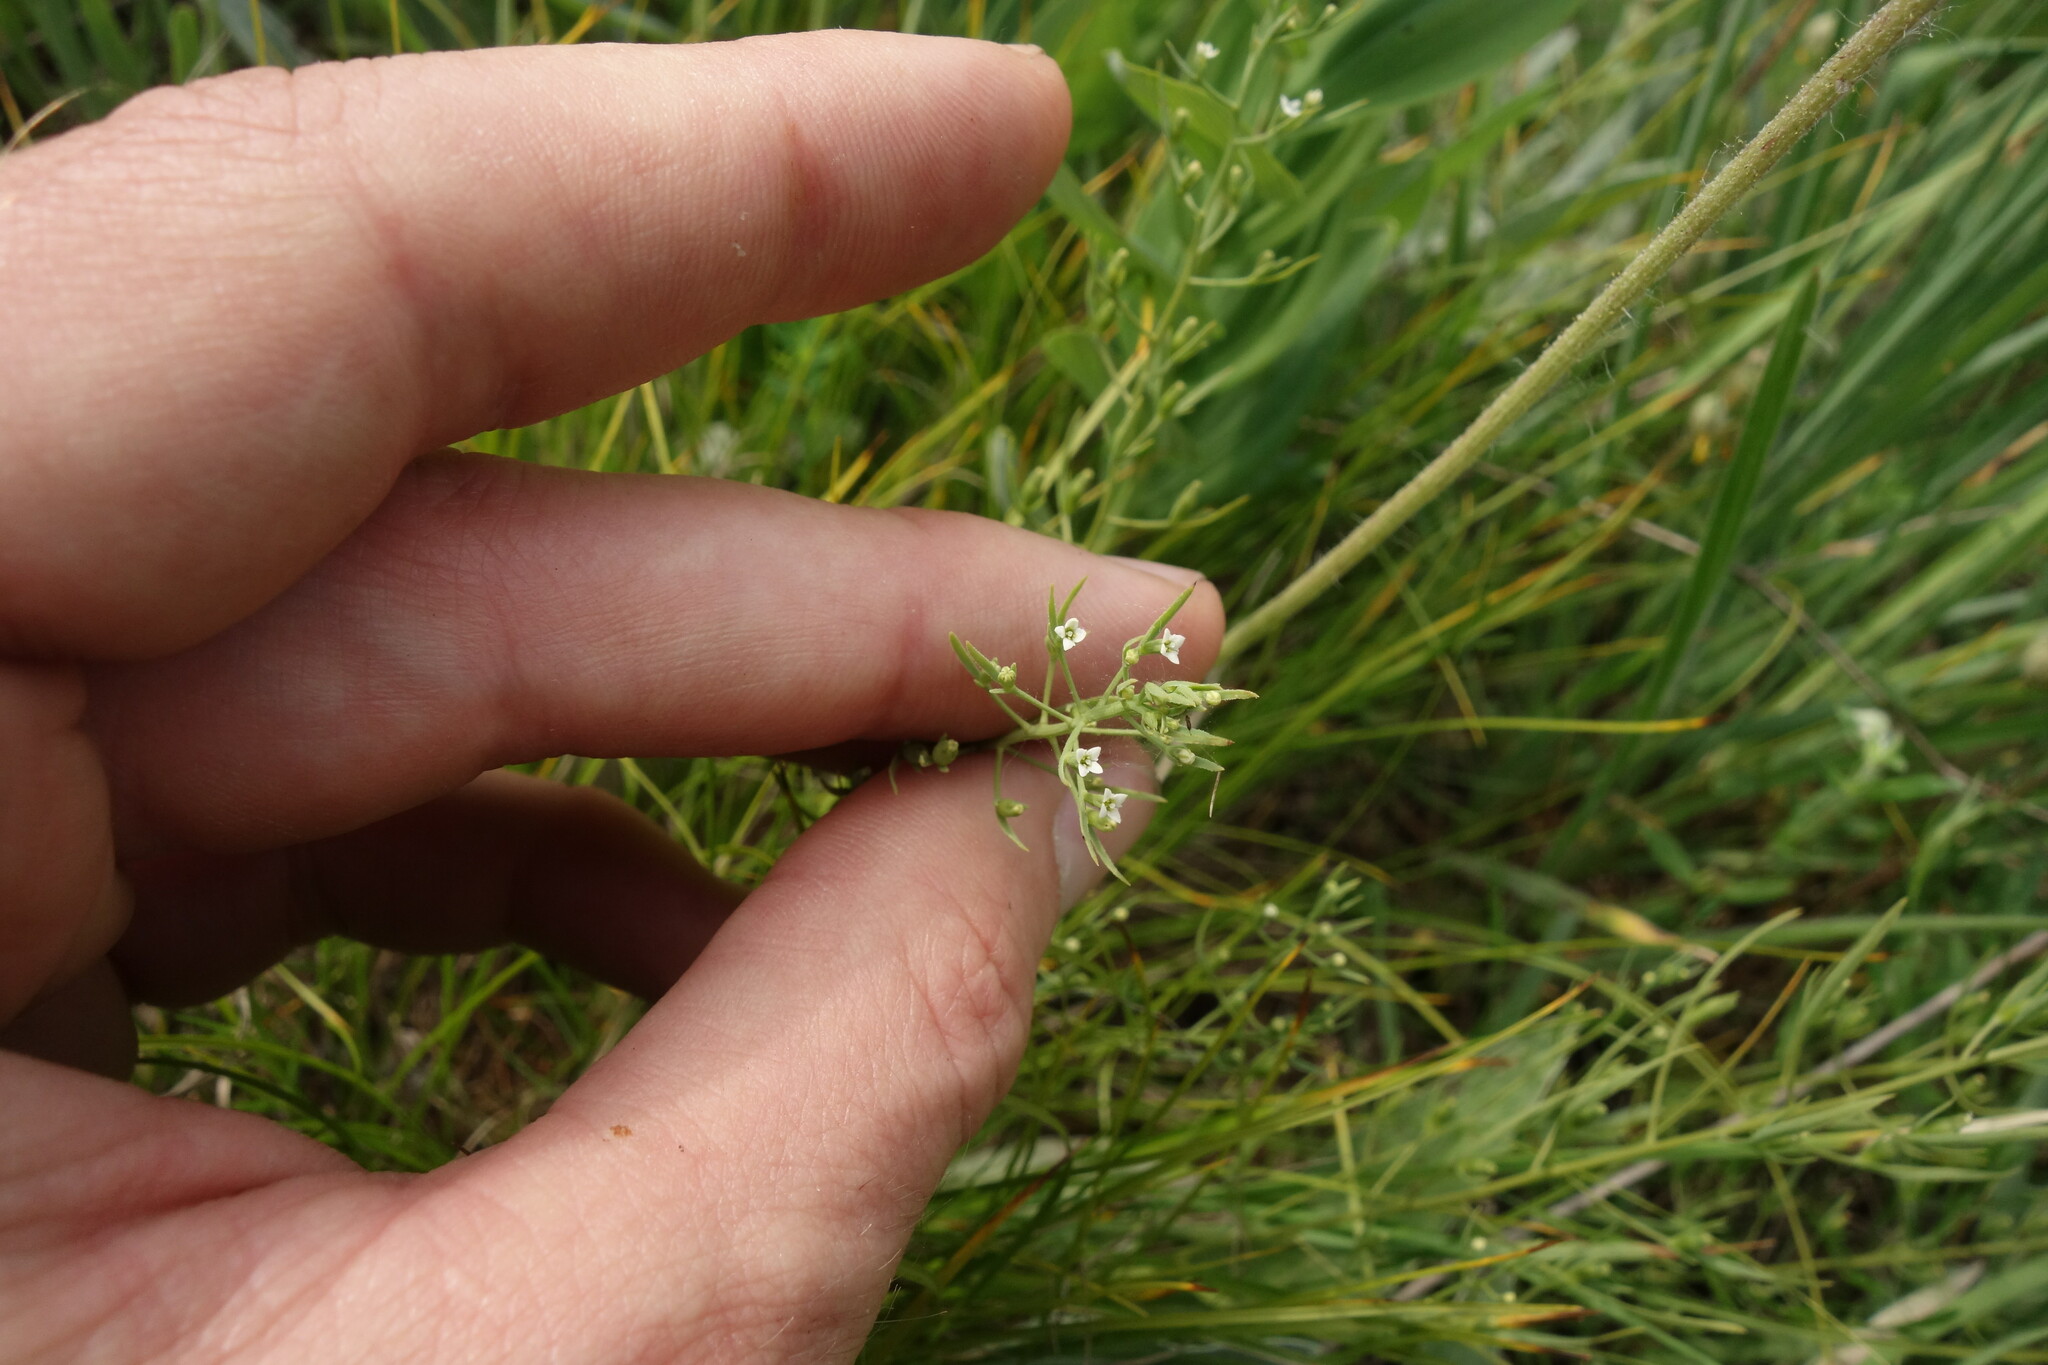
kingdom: Plantae
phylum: Tracheophyta
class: Magnoliopsida
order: Santalales
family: Thesiaceae
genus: Thesium
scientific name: Thesium ramosum
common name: Field thesium
